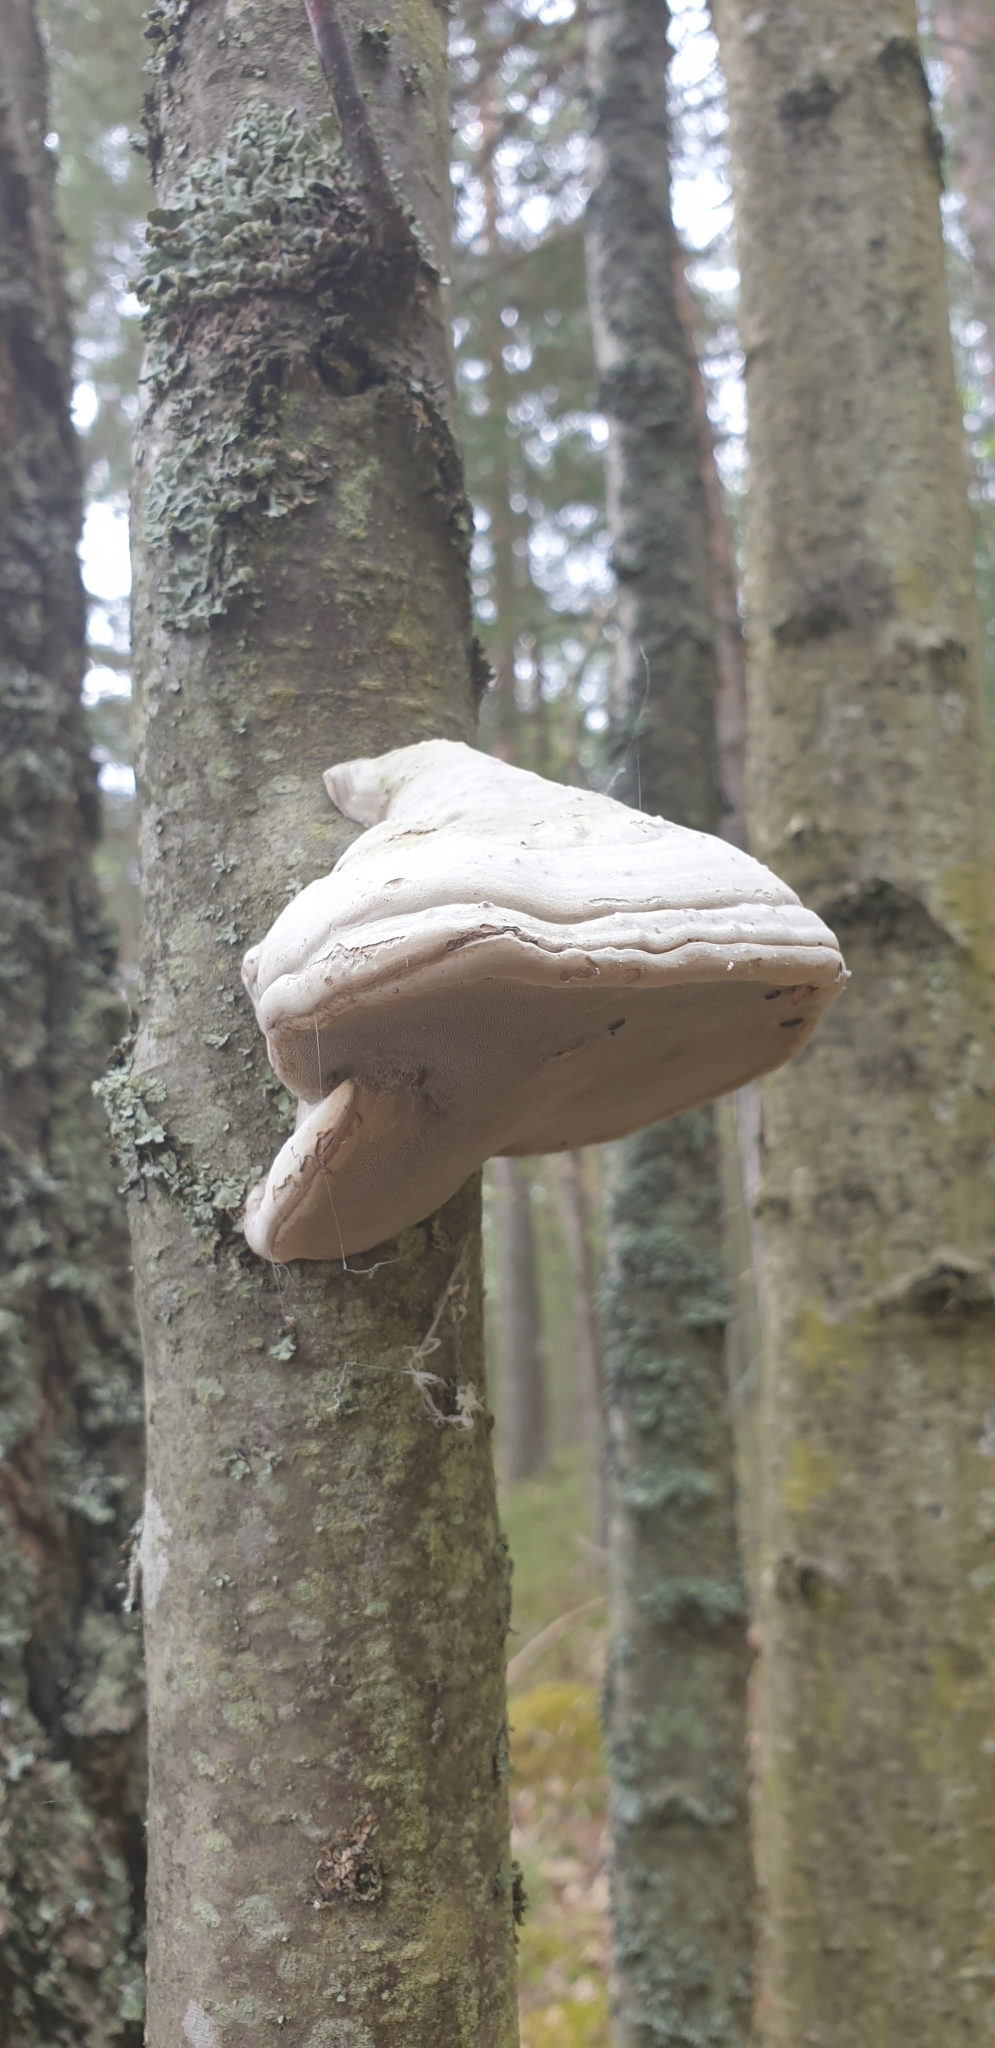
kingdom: Fungi
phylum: Basidiomycota
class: Agaricomycetes
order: Polyporales
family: Polyporaceae
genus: Fomes
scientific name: Fomes fomentarius
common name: Hoof fungus
